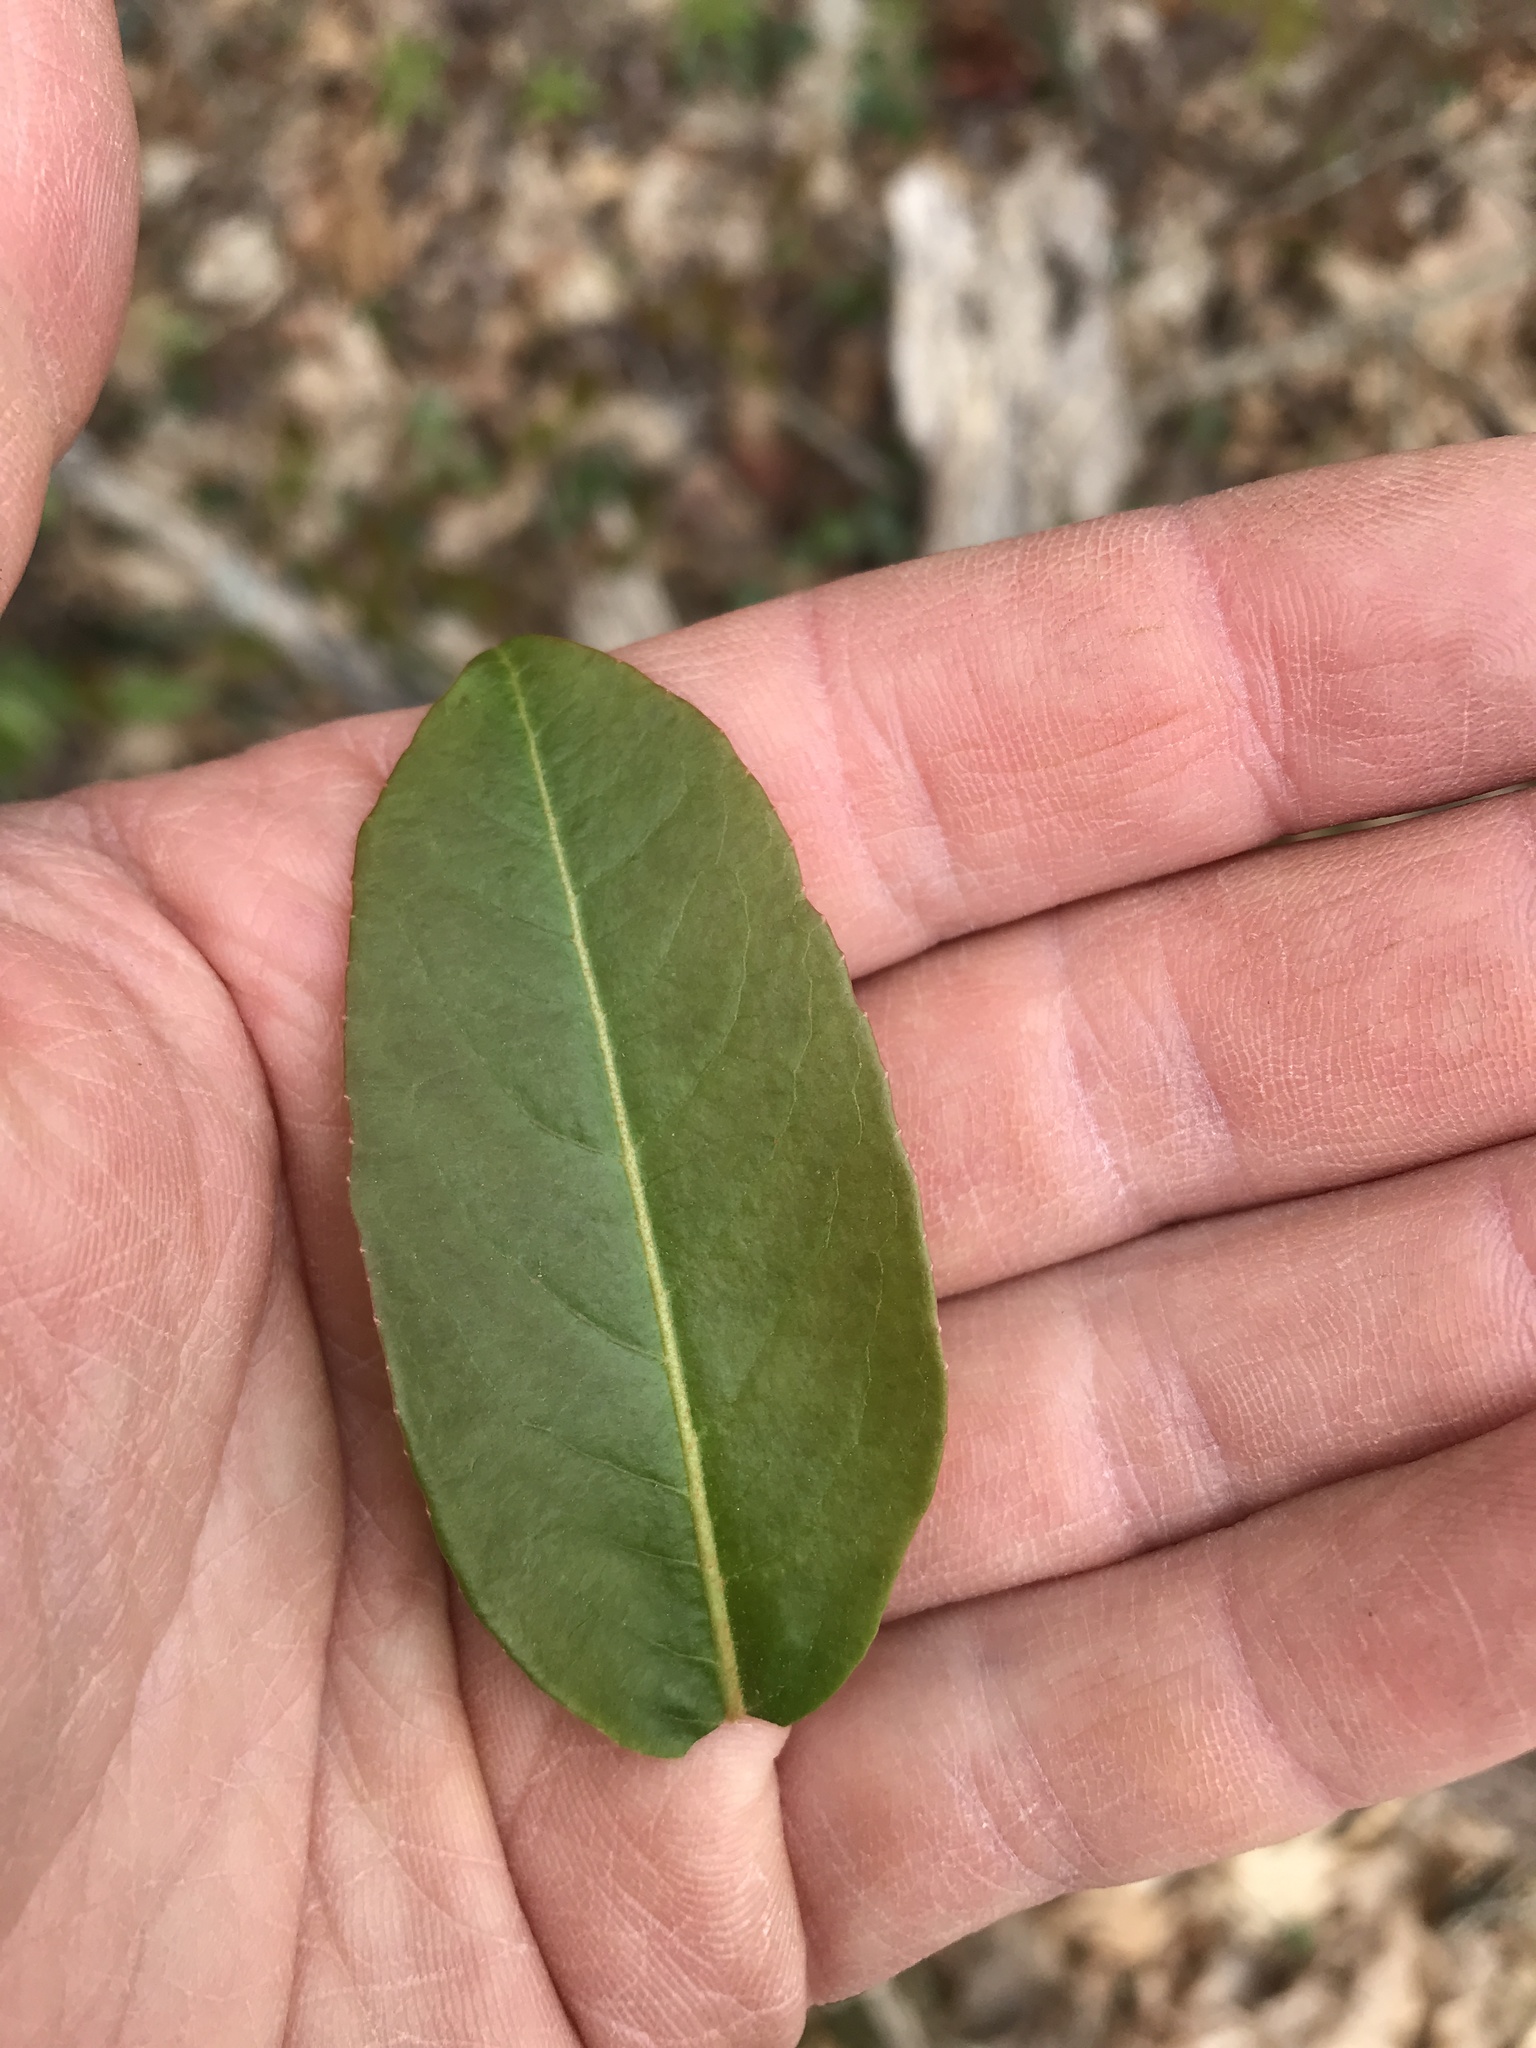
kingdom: Plantae
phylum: Tracheophyta
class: Magnoliopsida
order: Dipsacales
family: Viburnaceae
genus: Viburnum
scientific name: Viburnum cassinoides
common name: Swamp haw
